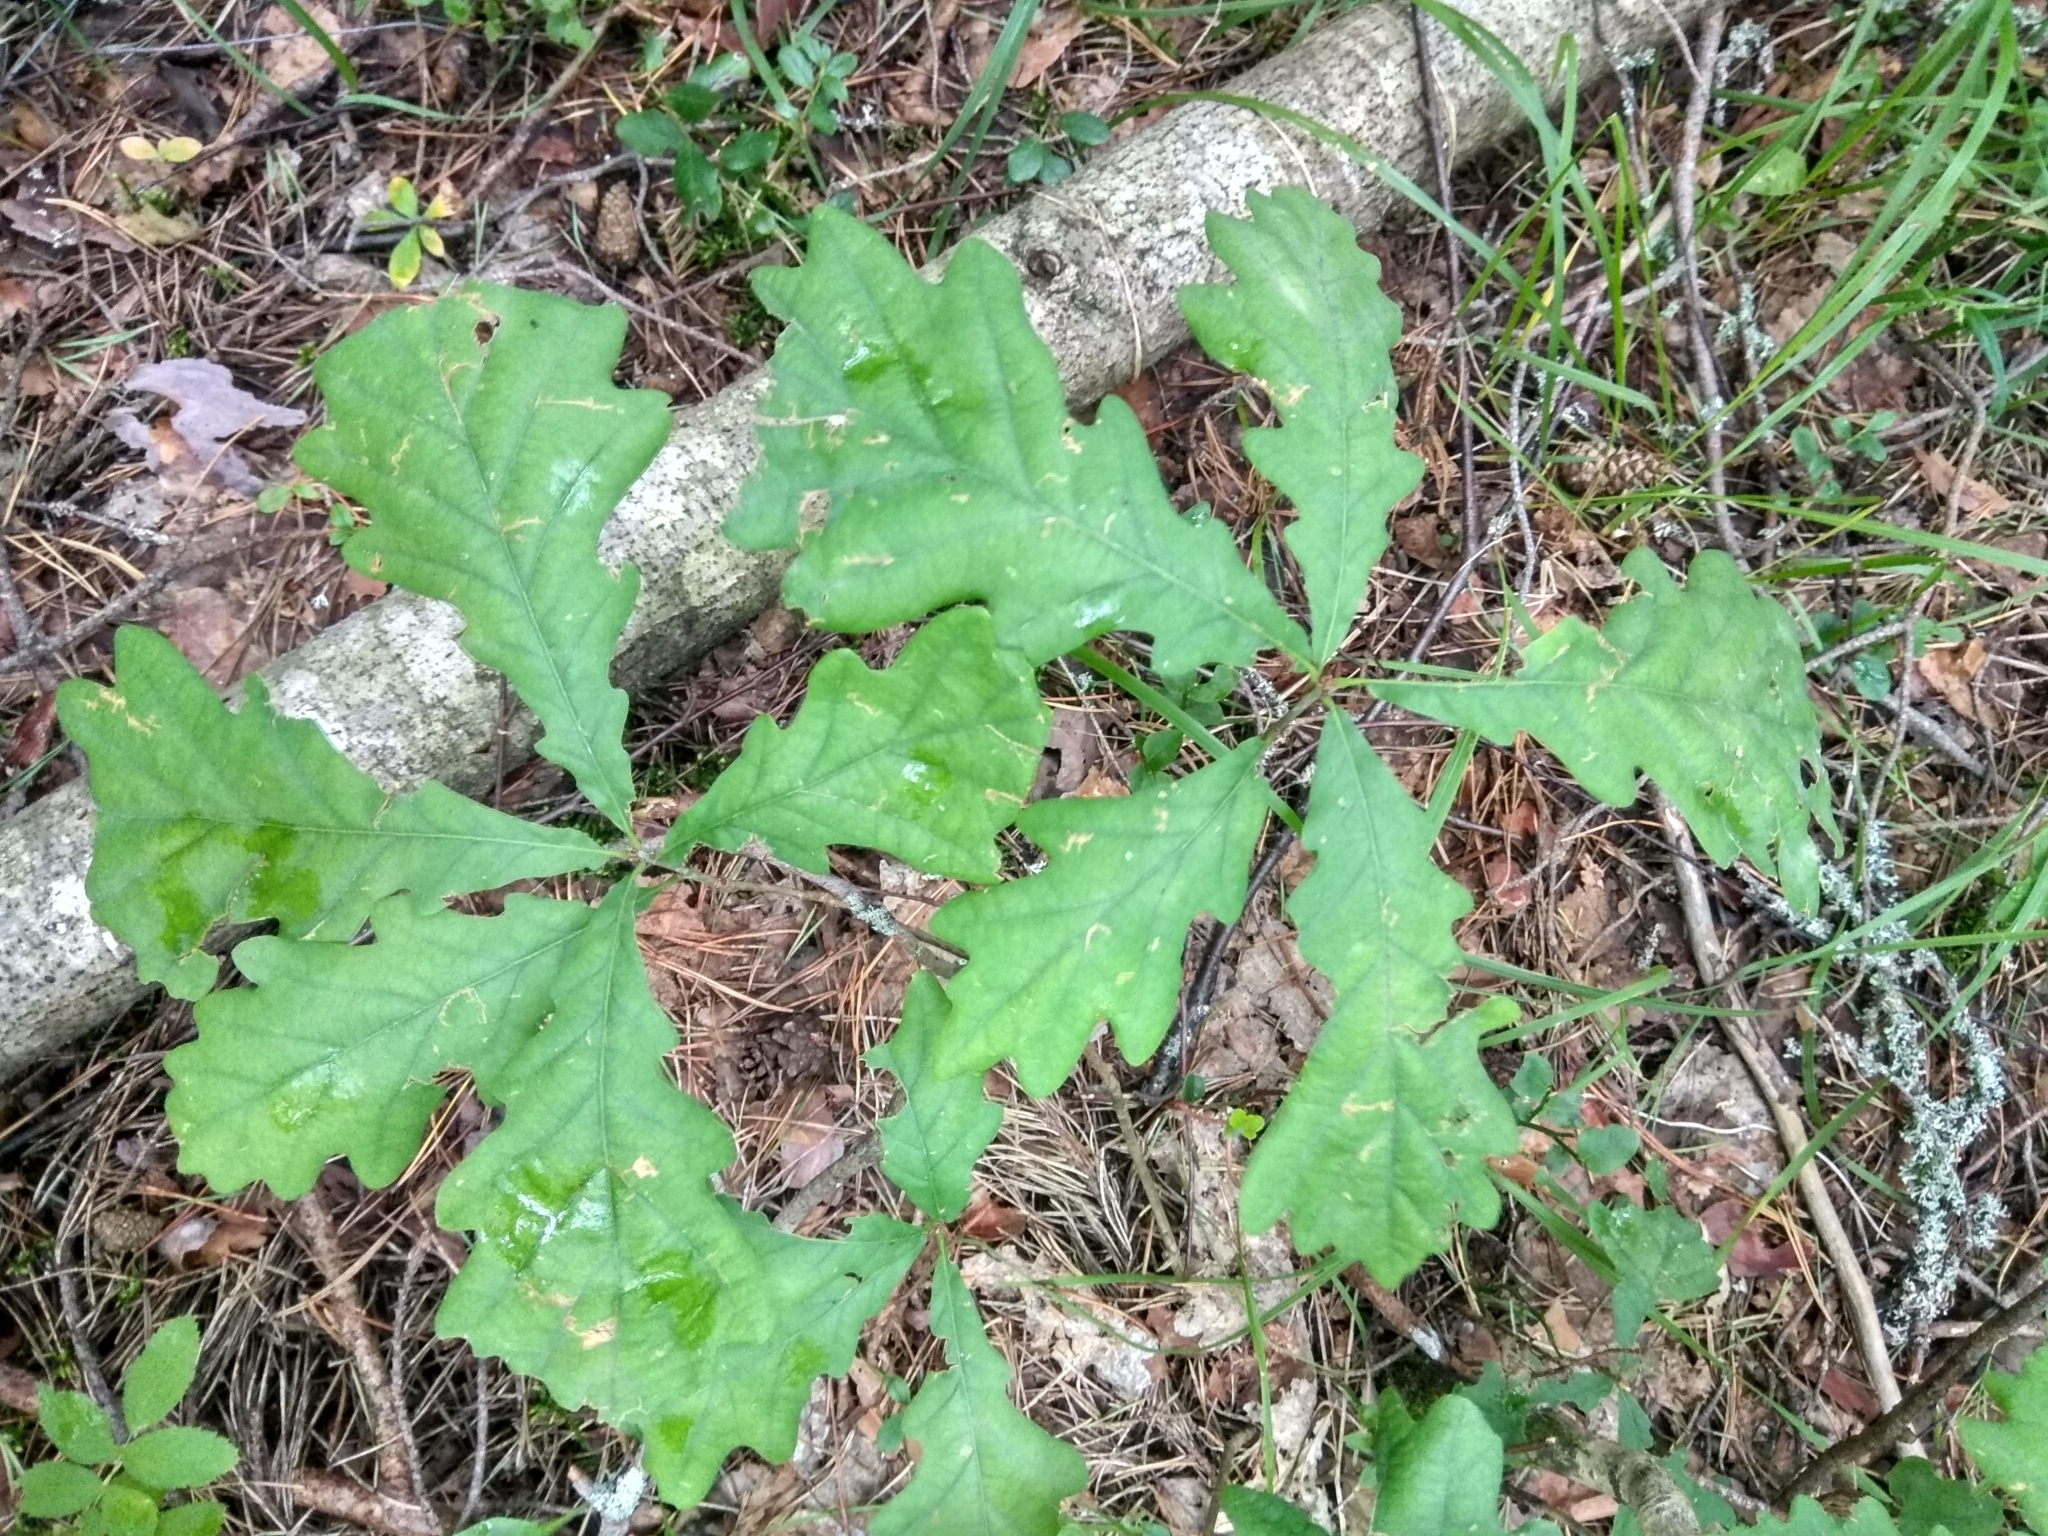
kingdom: Plantae
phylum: Tracheophyta
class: Magnoliopsida
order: Fagales
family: Fagaceae
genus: Quercus
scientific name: Quercus robur
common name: Pedunculate oak
